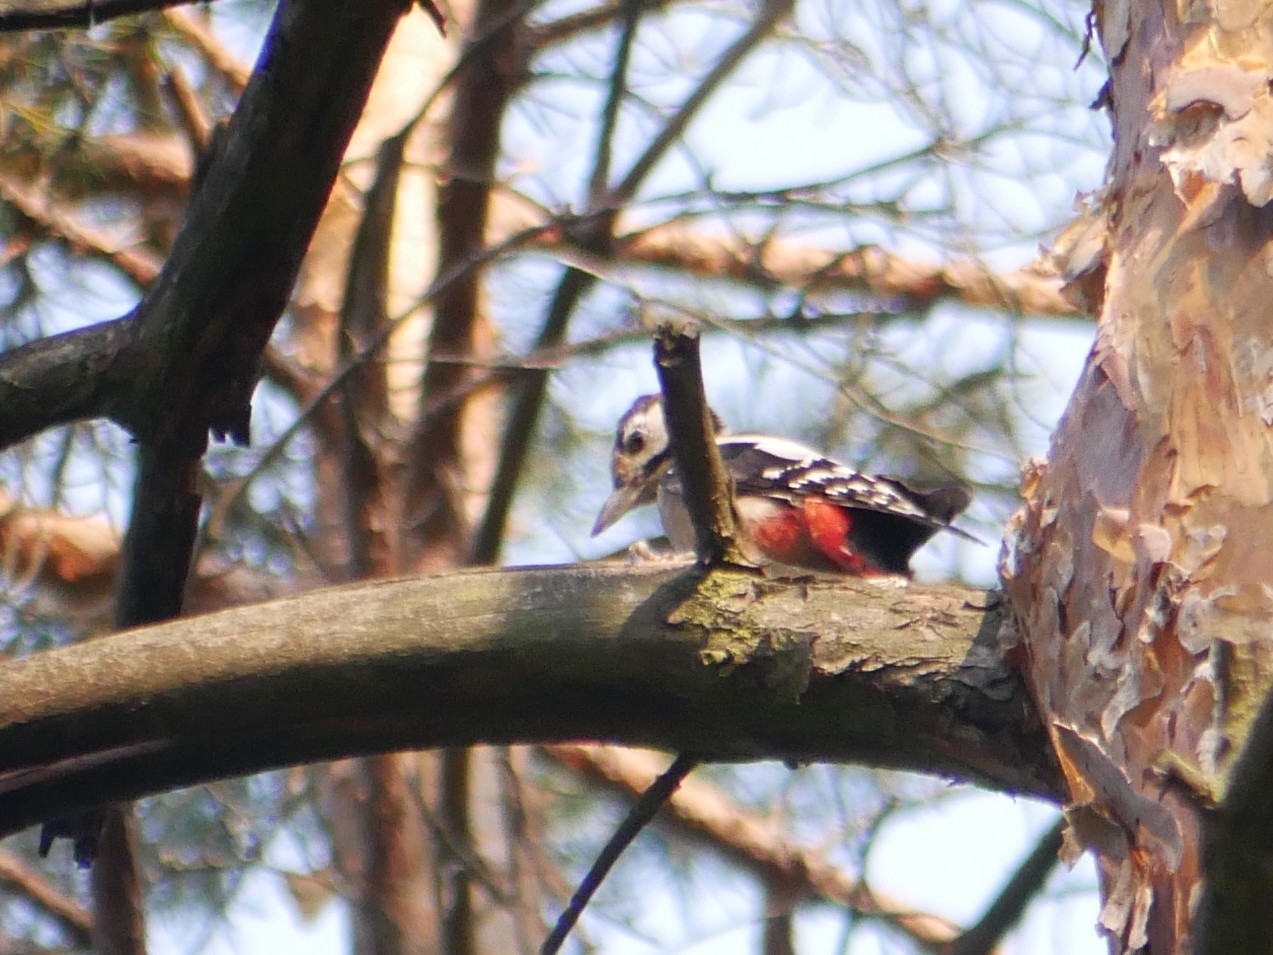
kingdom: Animalia
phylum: Chordata
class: Aves
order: Piciformes
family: Picidae
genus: Dendrocopos
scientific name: Dendrocopos major
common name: Great spotted woodpecker
